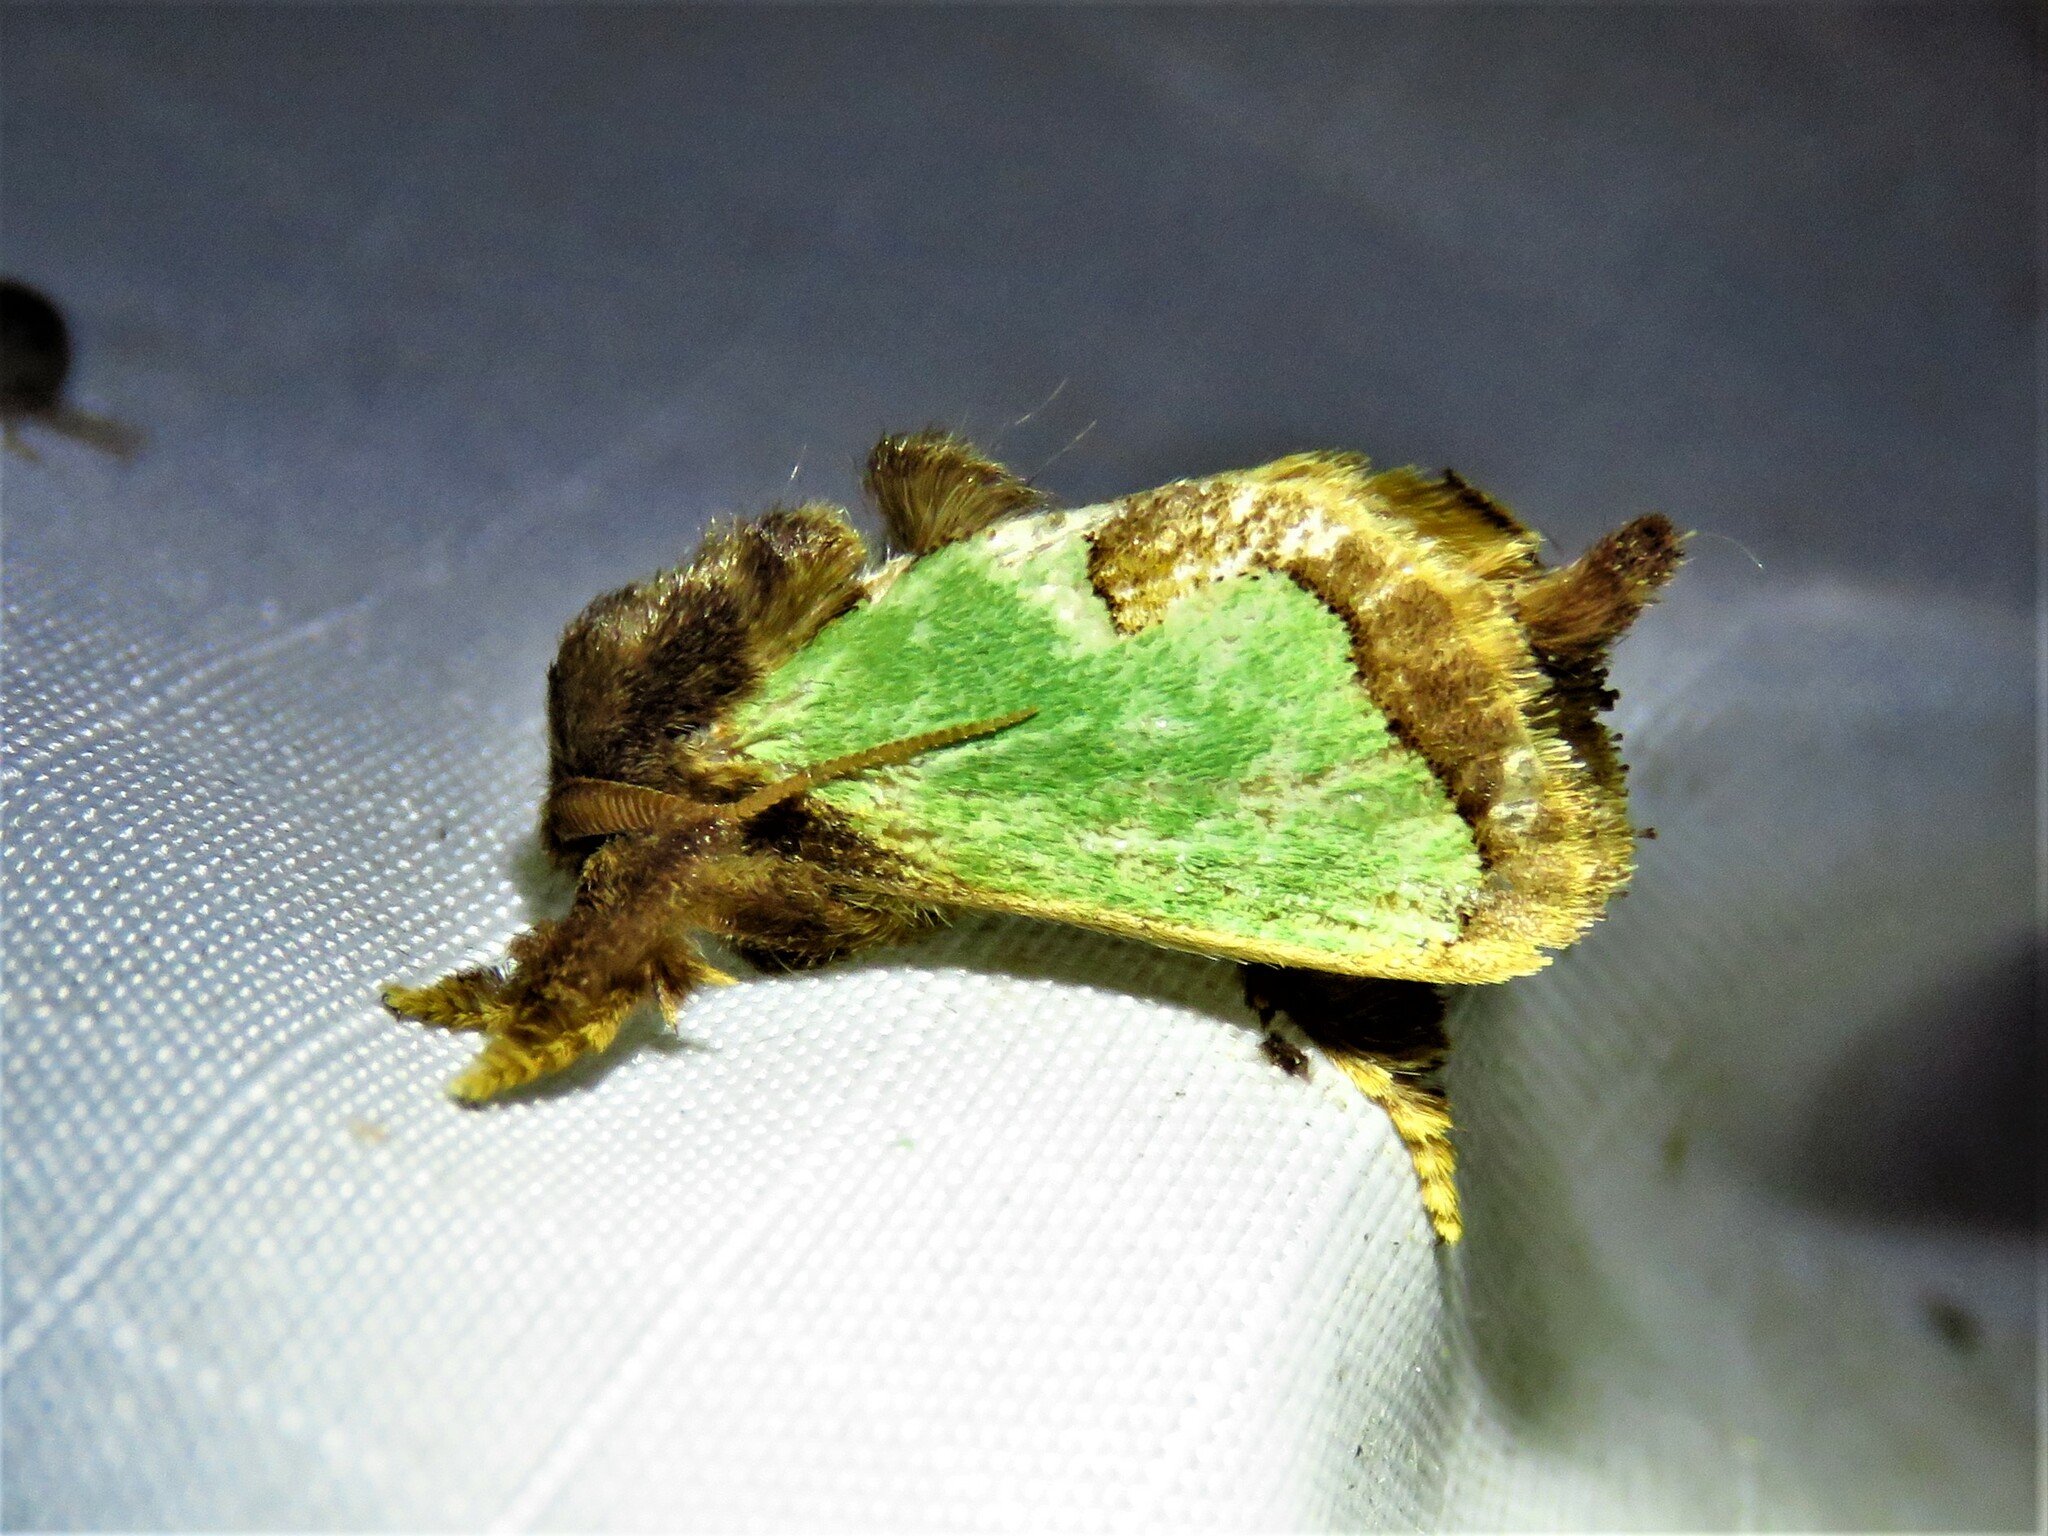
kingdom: Animalia
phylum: Arthropoda
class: Insecta
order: Lepidoptera
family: Limacodidae
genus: Euclea
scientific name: Euclea incisa
